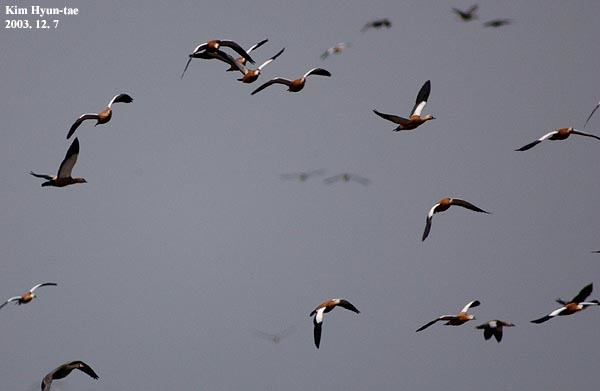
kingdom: Animalia
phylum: Chordata
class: Aves
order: Anseriformes
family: Anatidae
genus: Tadorna
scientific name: Tadorna ferruginea
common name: Ruddy shelduck
